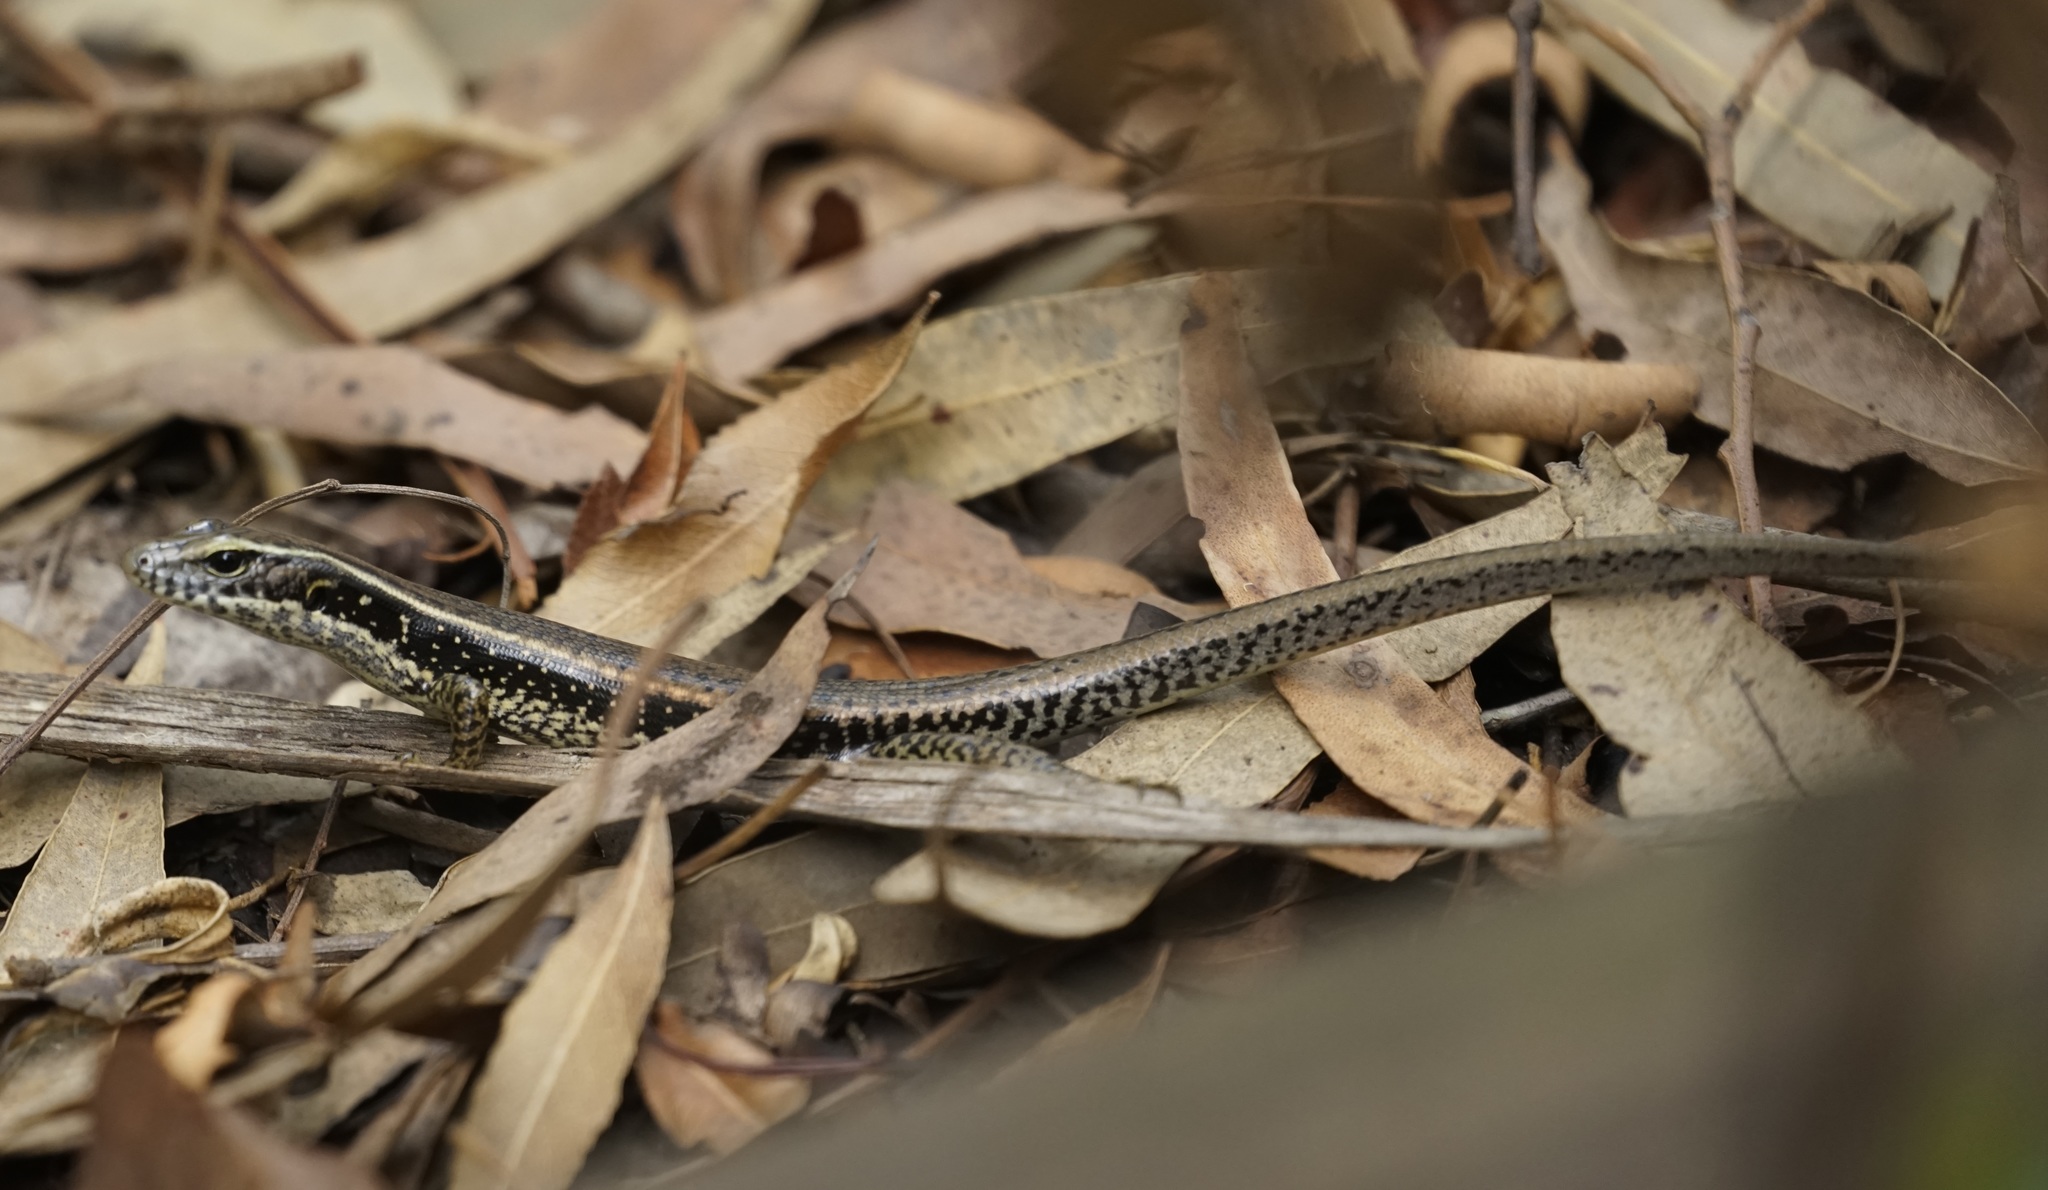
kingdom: Animalia
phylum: Chordata
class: Squamata
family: Scincidae
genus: Eulamprus
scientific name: Eulamprus quoyii
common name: Eastern water skink
